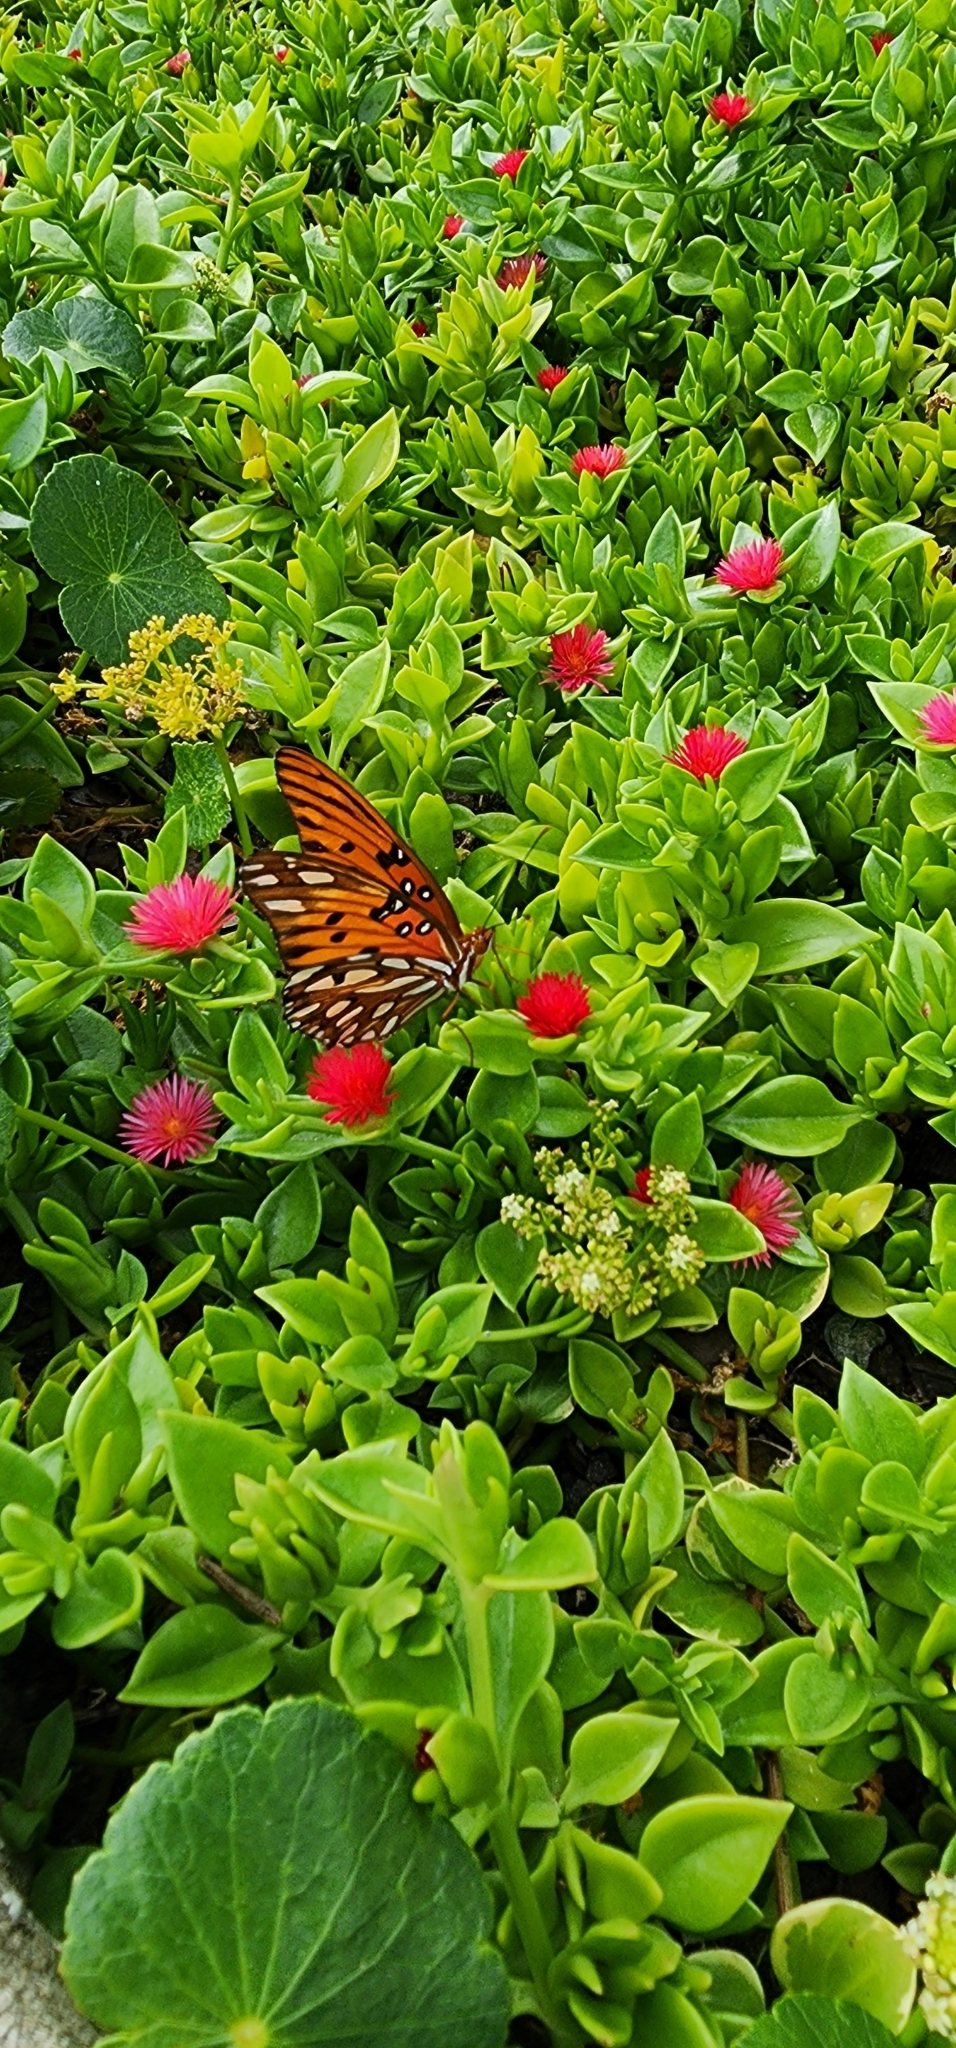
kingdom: Animalia
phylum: Arthropoda
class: Insecta
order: Lepidoptera
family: Nymphalidae
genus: Dione
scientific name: Dione vanillae
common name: Gulf fritillary
